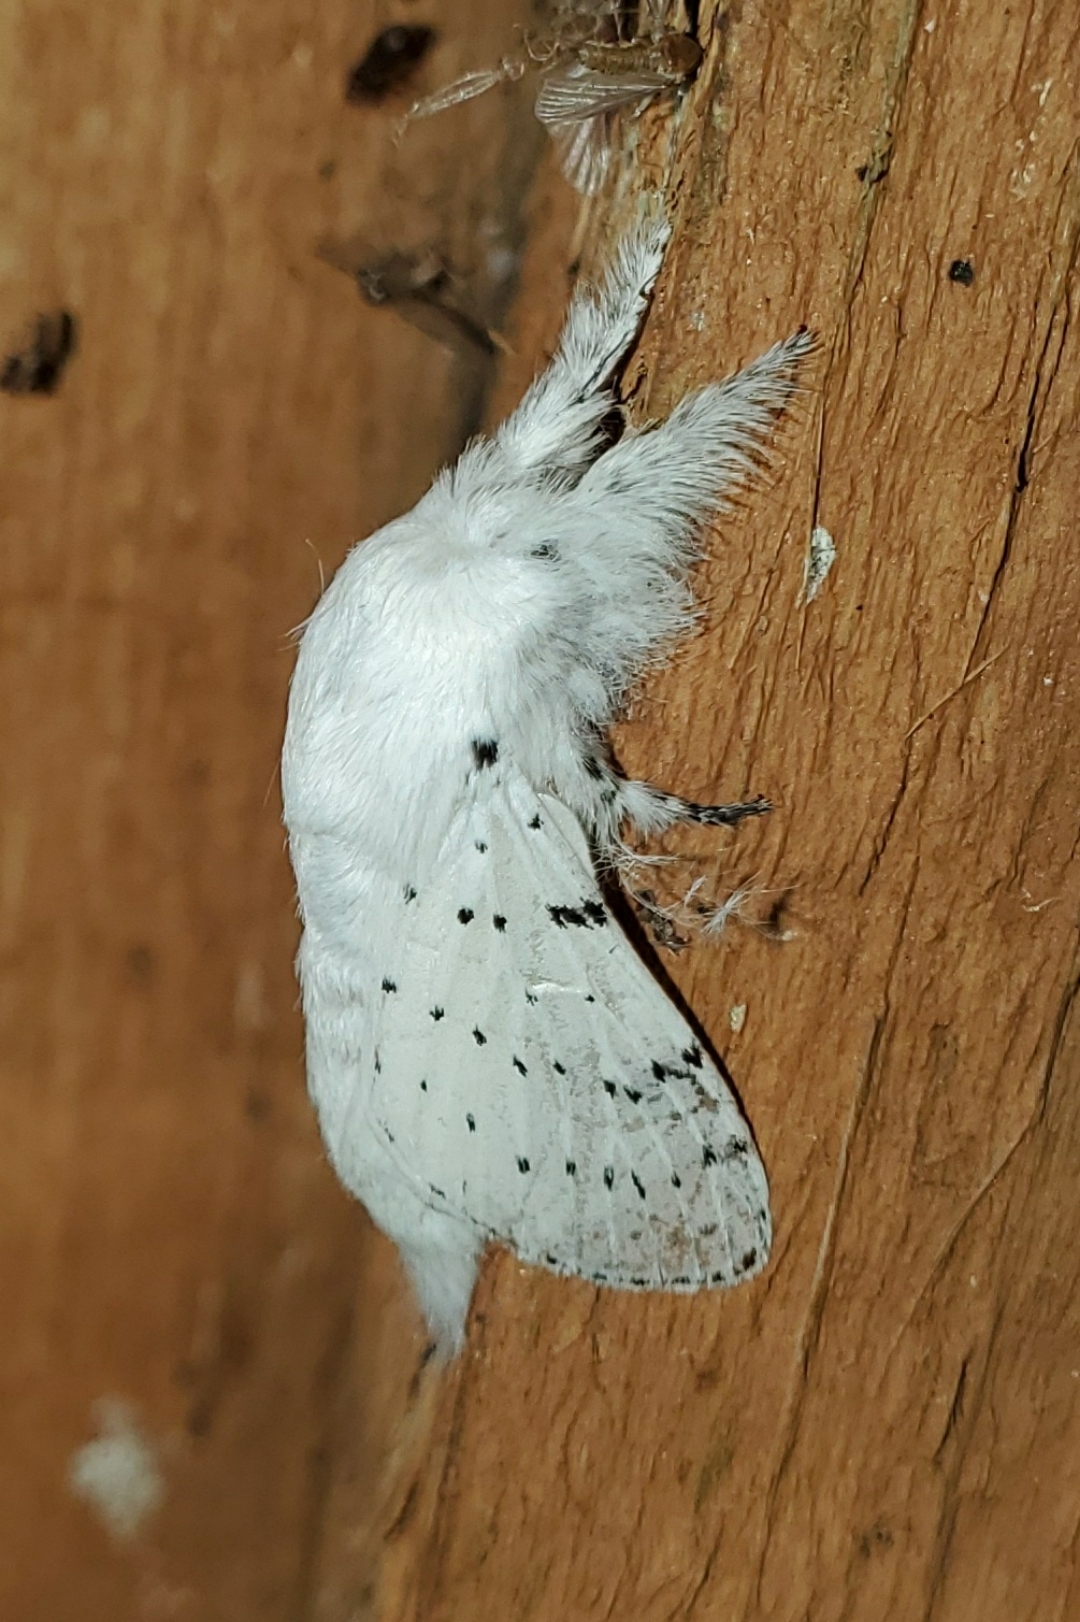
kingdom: Animalia
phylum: Arthropoda
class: Insecta
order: Lepidoptera
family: Lasiocampidae
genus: Artace
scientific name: Artace cribrarius
